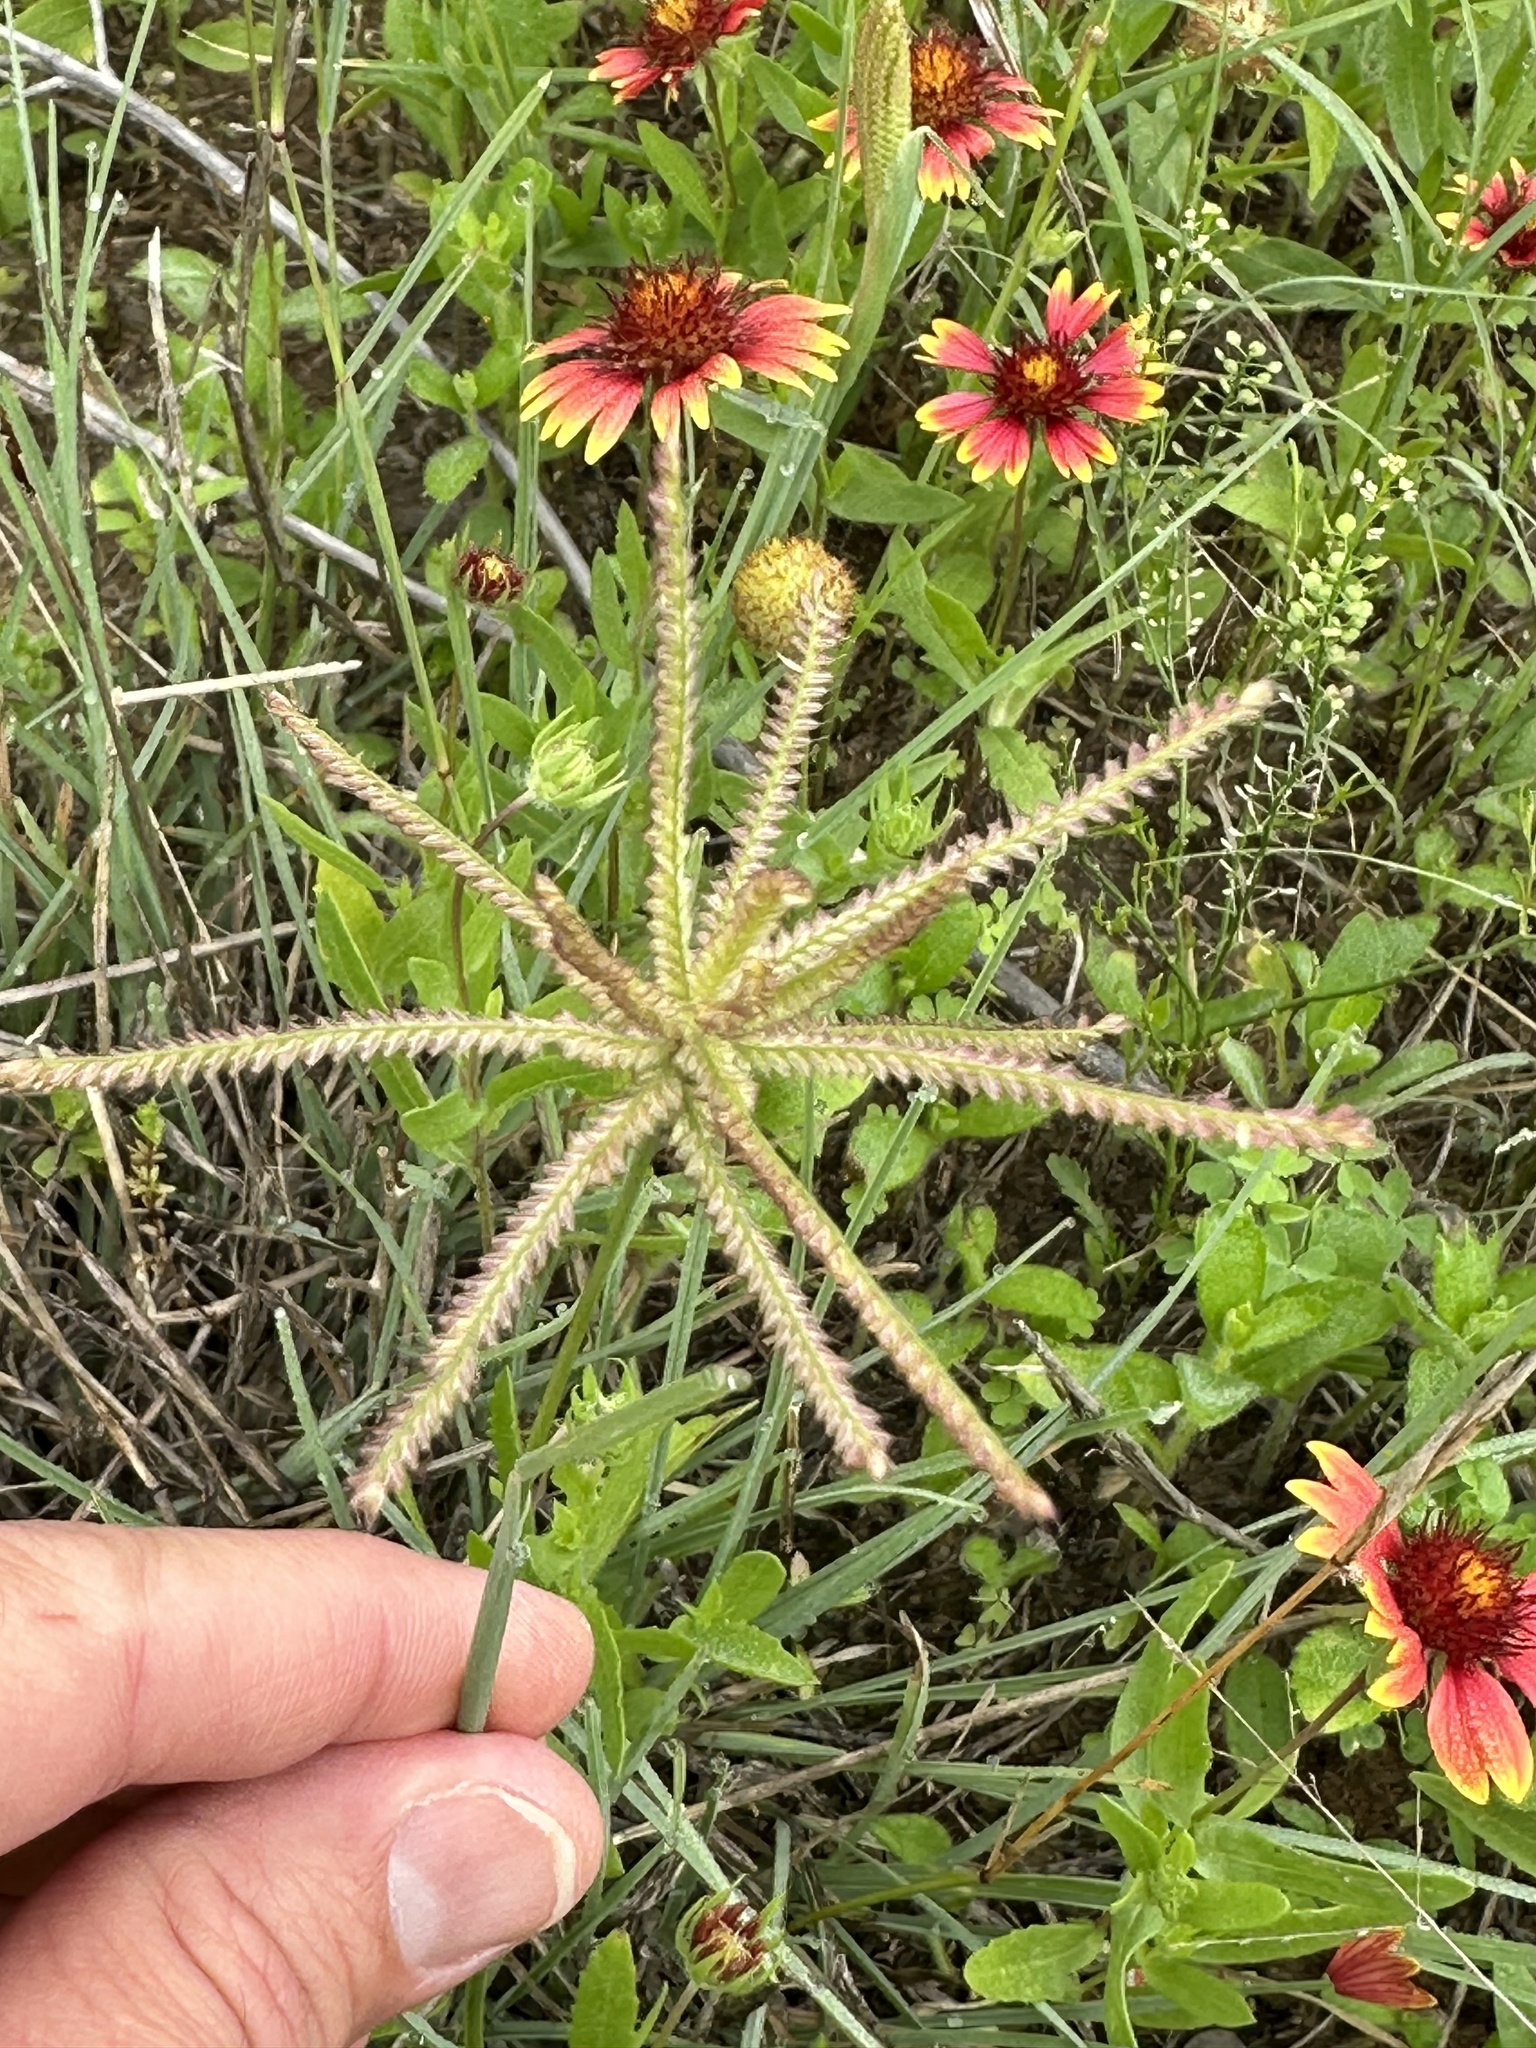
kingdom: Plantae
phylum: Tracheophyta
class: Liliopsida
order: Poales
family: Poaceae
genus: Chloris
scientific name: Chloris cucullata
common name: Hooded windmill grass
